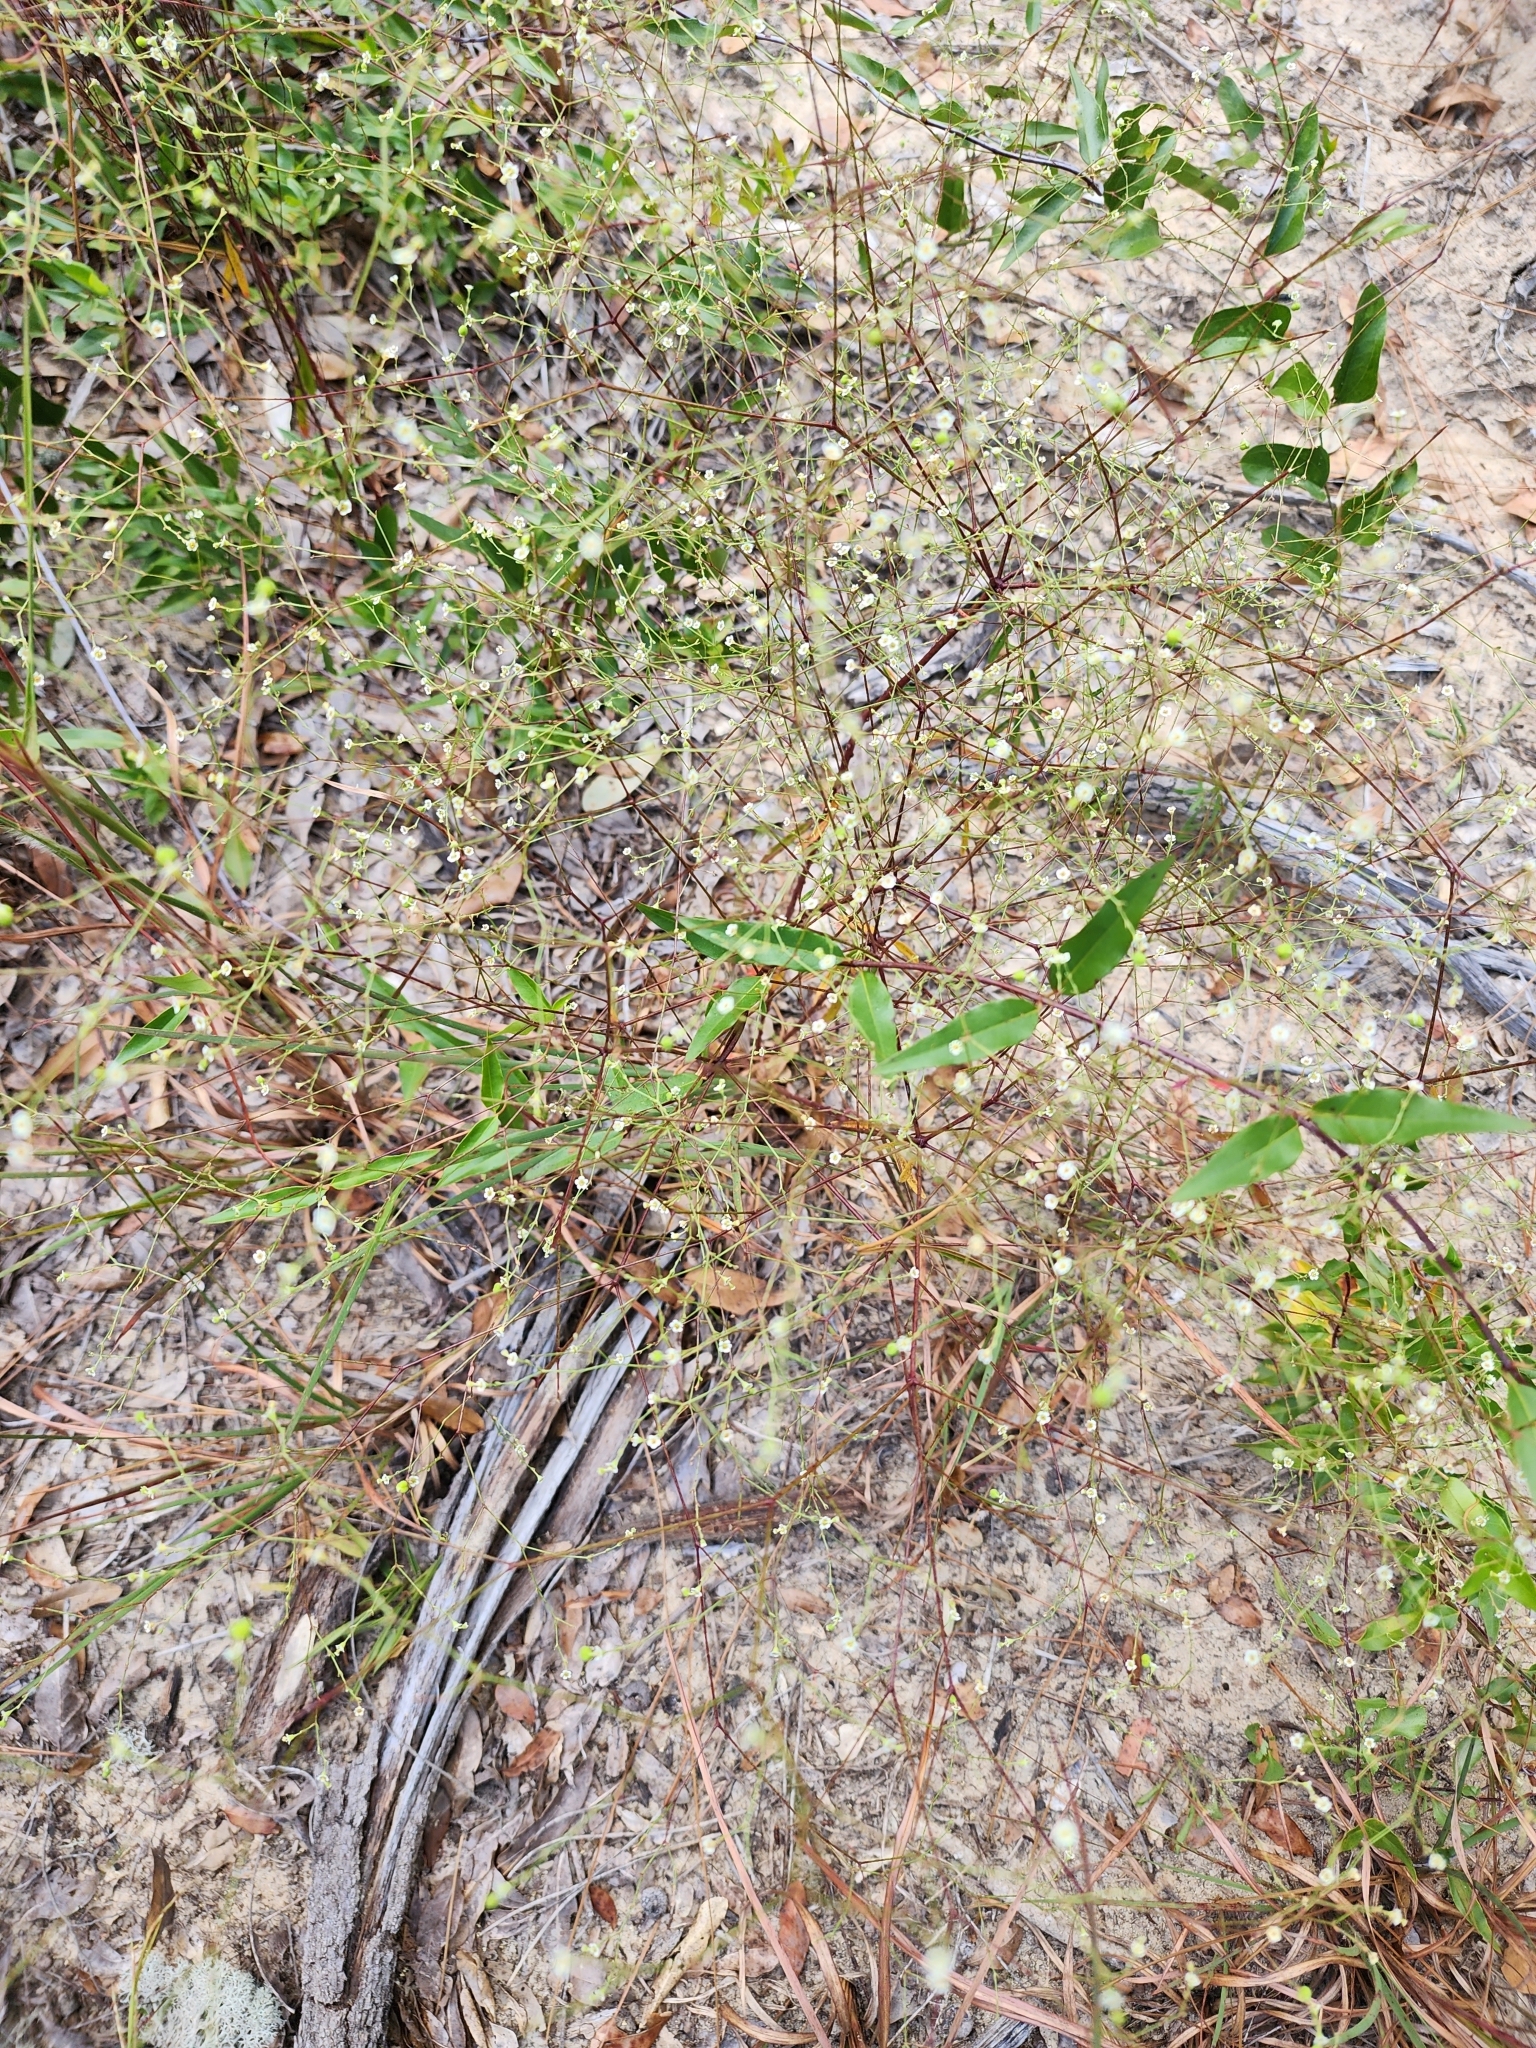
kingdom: Plantae
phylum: Tracheophyta
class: Magnoliopsida
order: Malpighiales
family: Euphorbiaceae
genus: Euphorbia
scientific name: Euphorbia discoidalis
